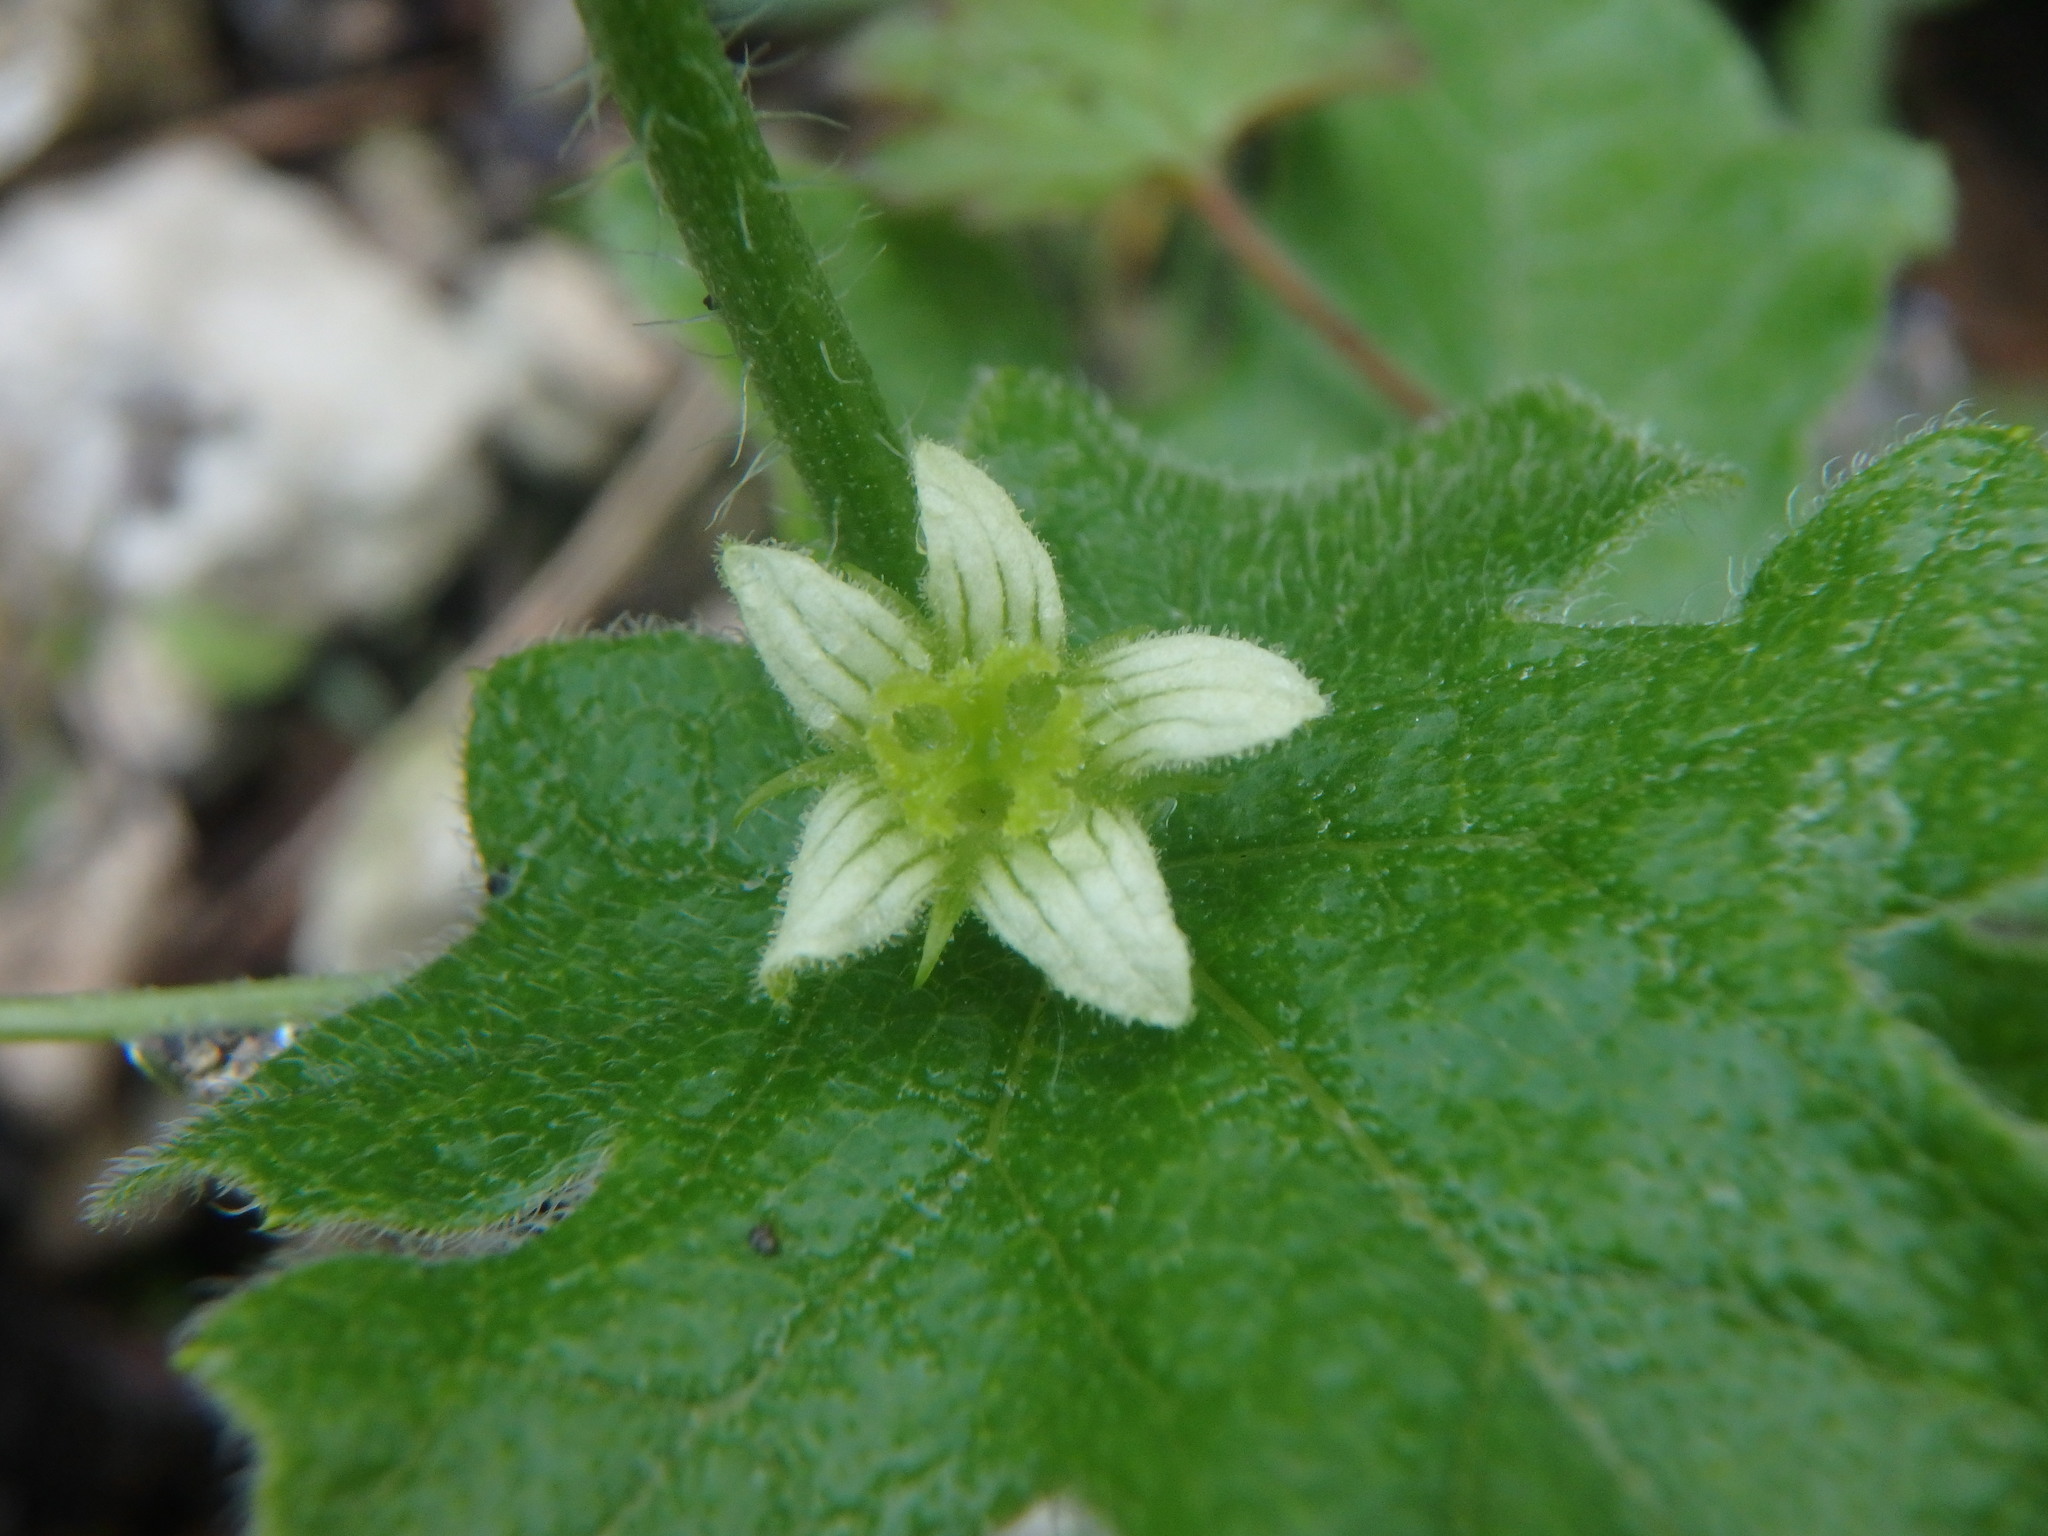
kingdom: Plantae
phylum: Tracheophyta
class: Magnoliopsida
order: Cucurbitales
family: Cucurbitaceae
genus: Bryonia
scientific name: Bryonia cretica
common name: Cretan bryony
